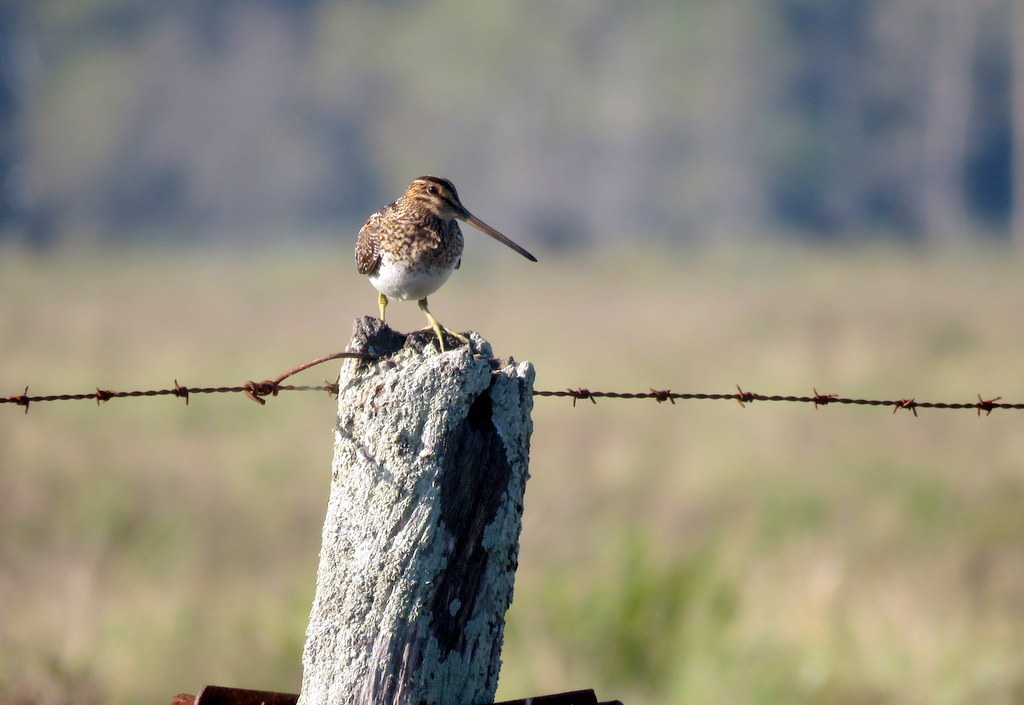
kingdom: Animalia
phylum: Chordata
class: Aves
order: Charadriiformes
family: Scolopacidae
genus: Gallinago
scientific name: Gallinago paraguaiae
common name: South american snipe
